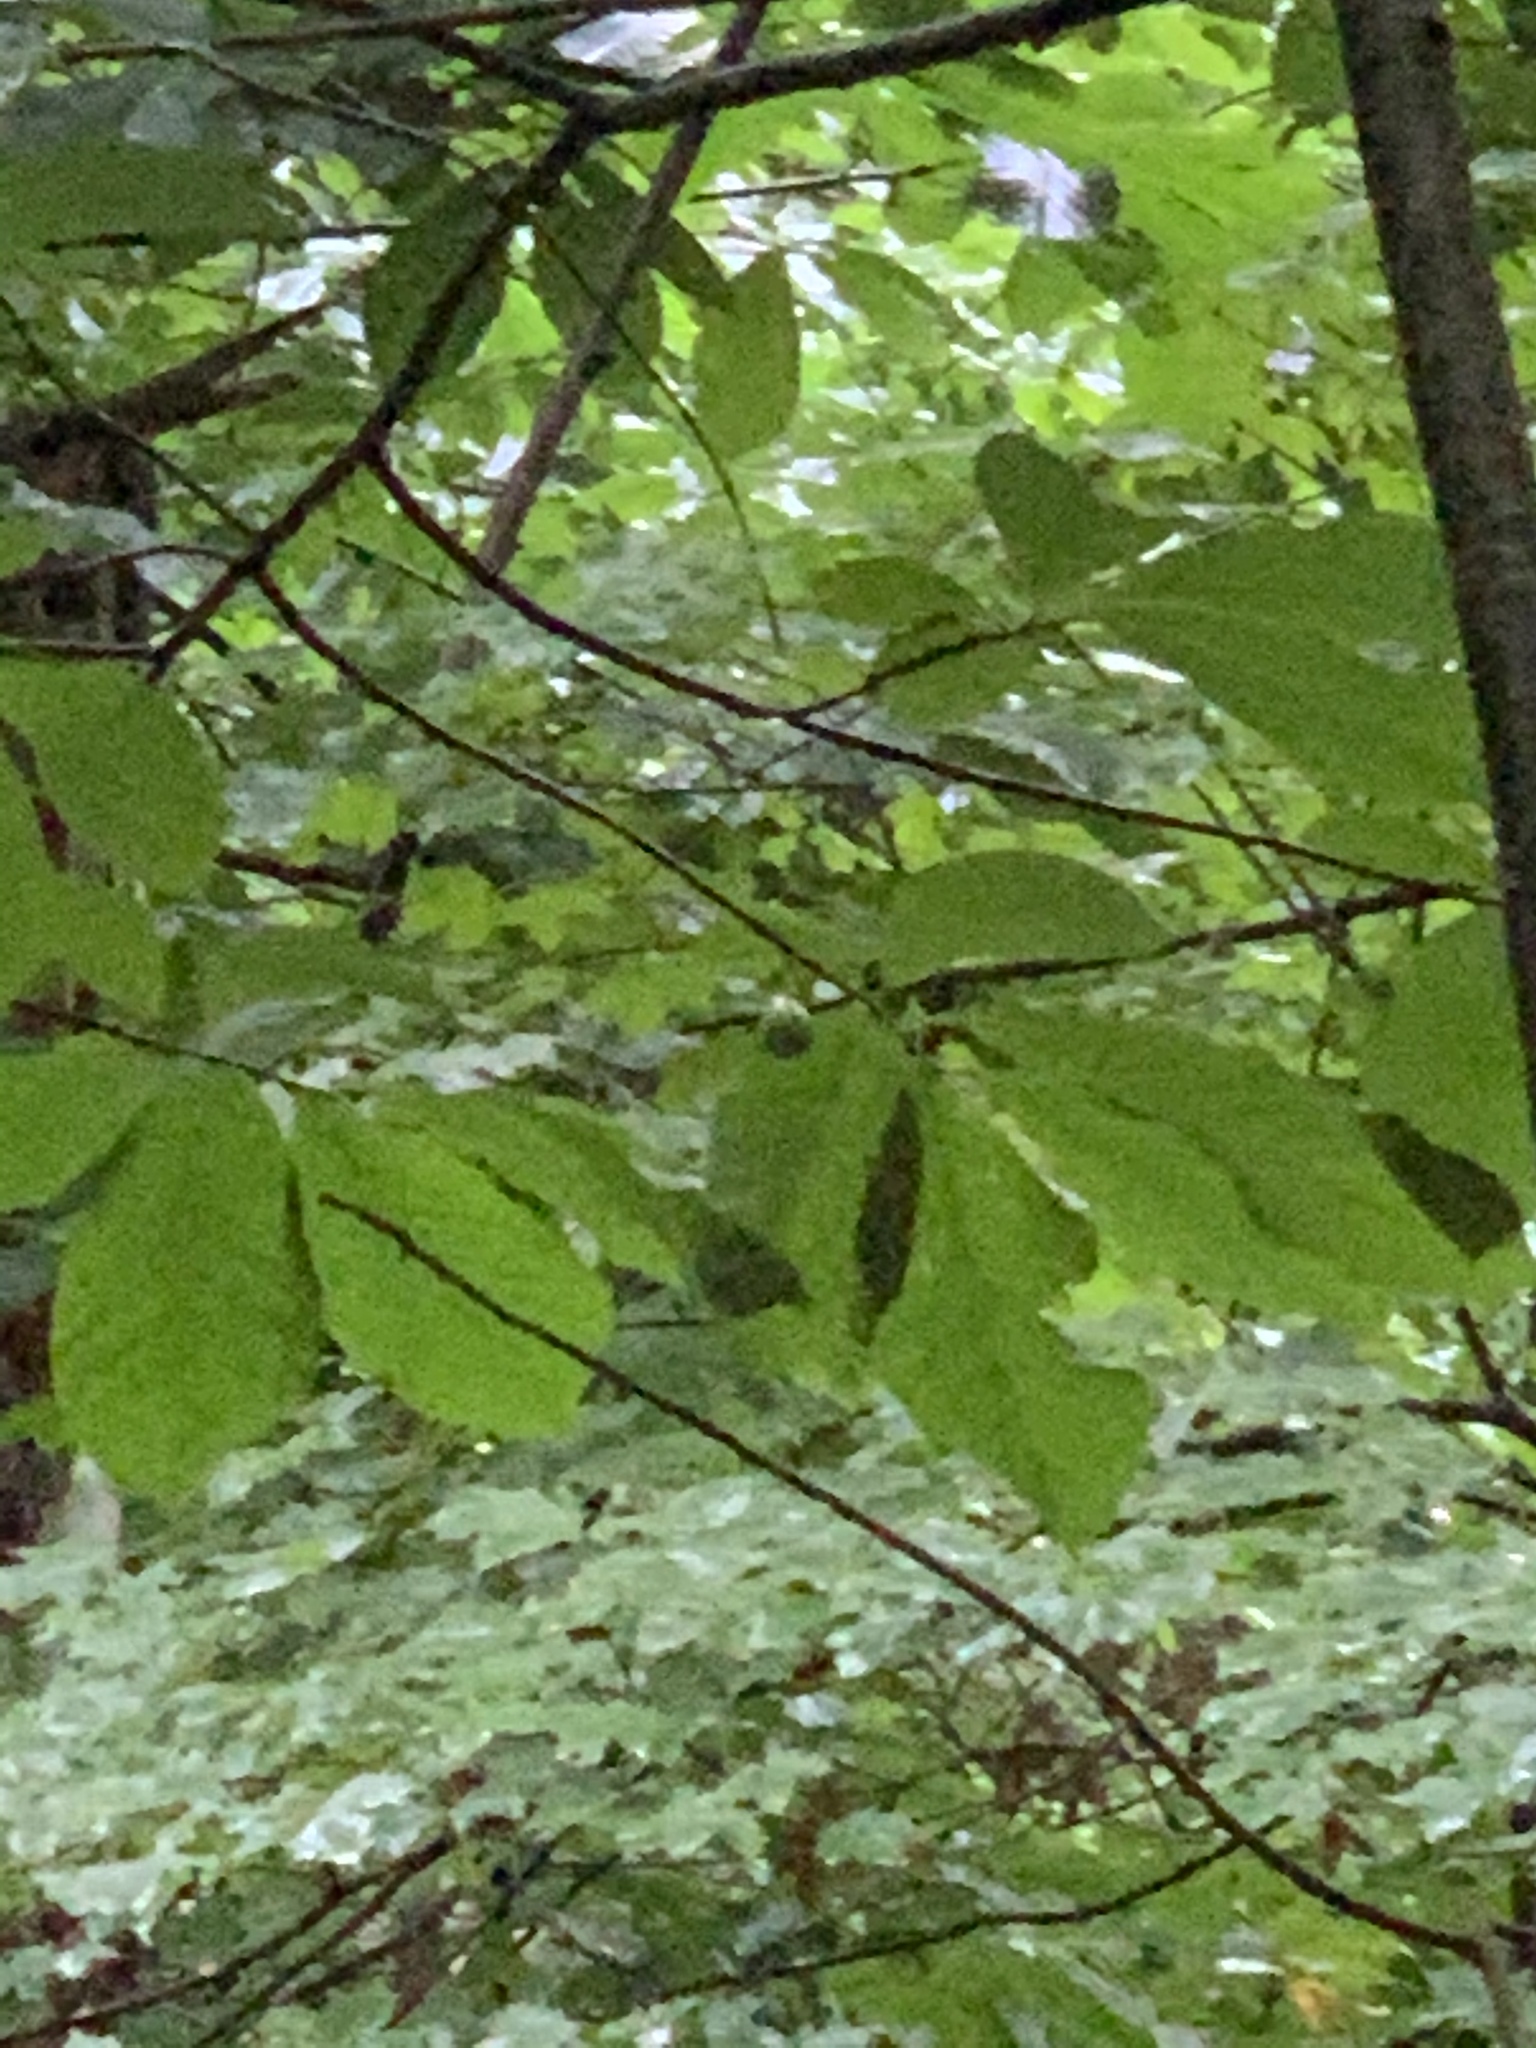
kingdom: Plantae
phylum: Tracheophyta
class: Magnoliopsida
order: Magnoliales
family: Annonaceae
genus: Asimina
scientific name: Asimina triloba
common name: Dog-banana
